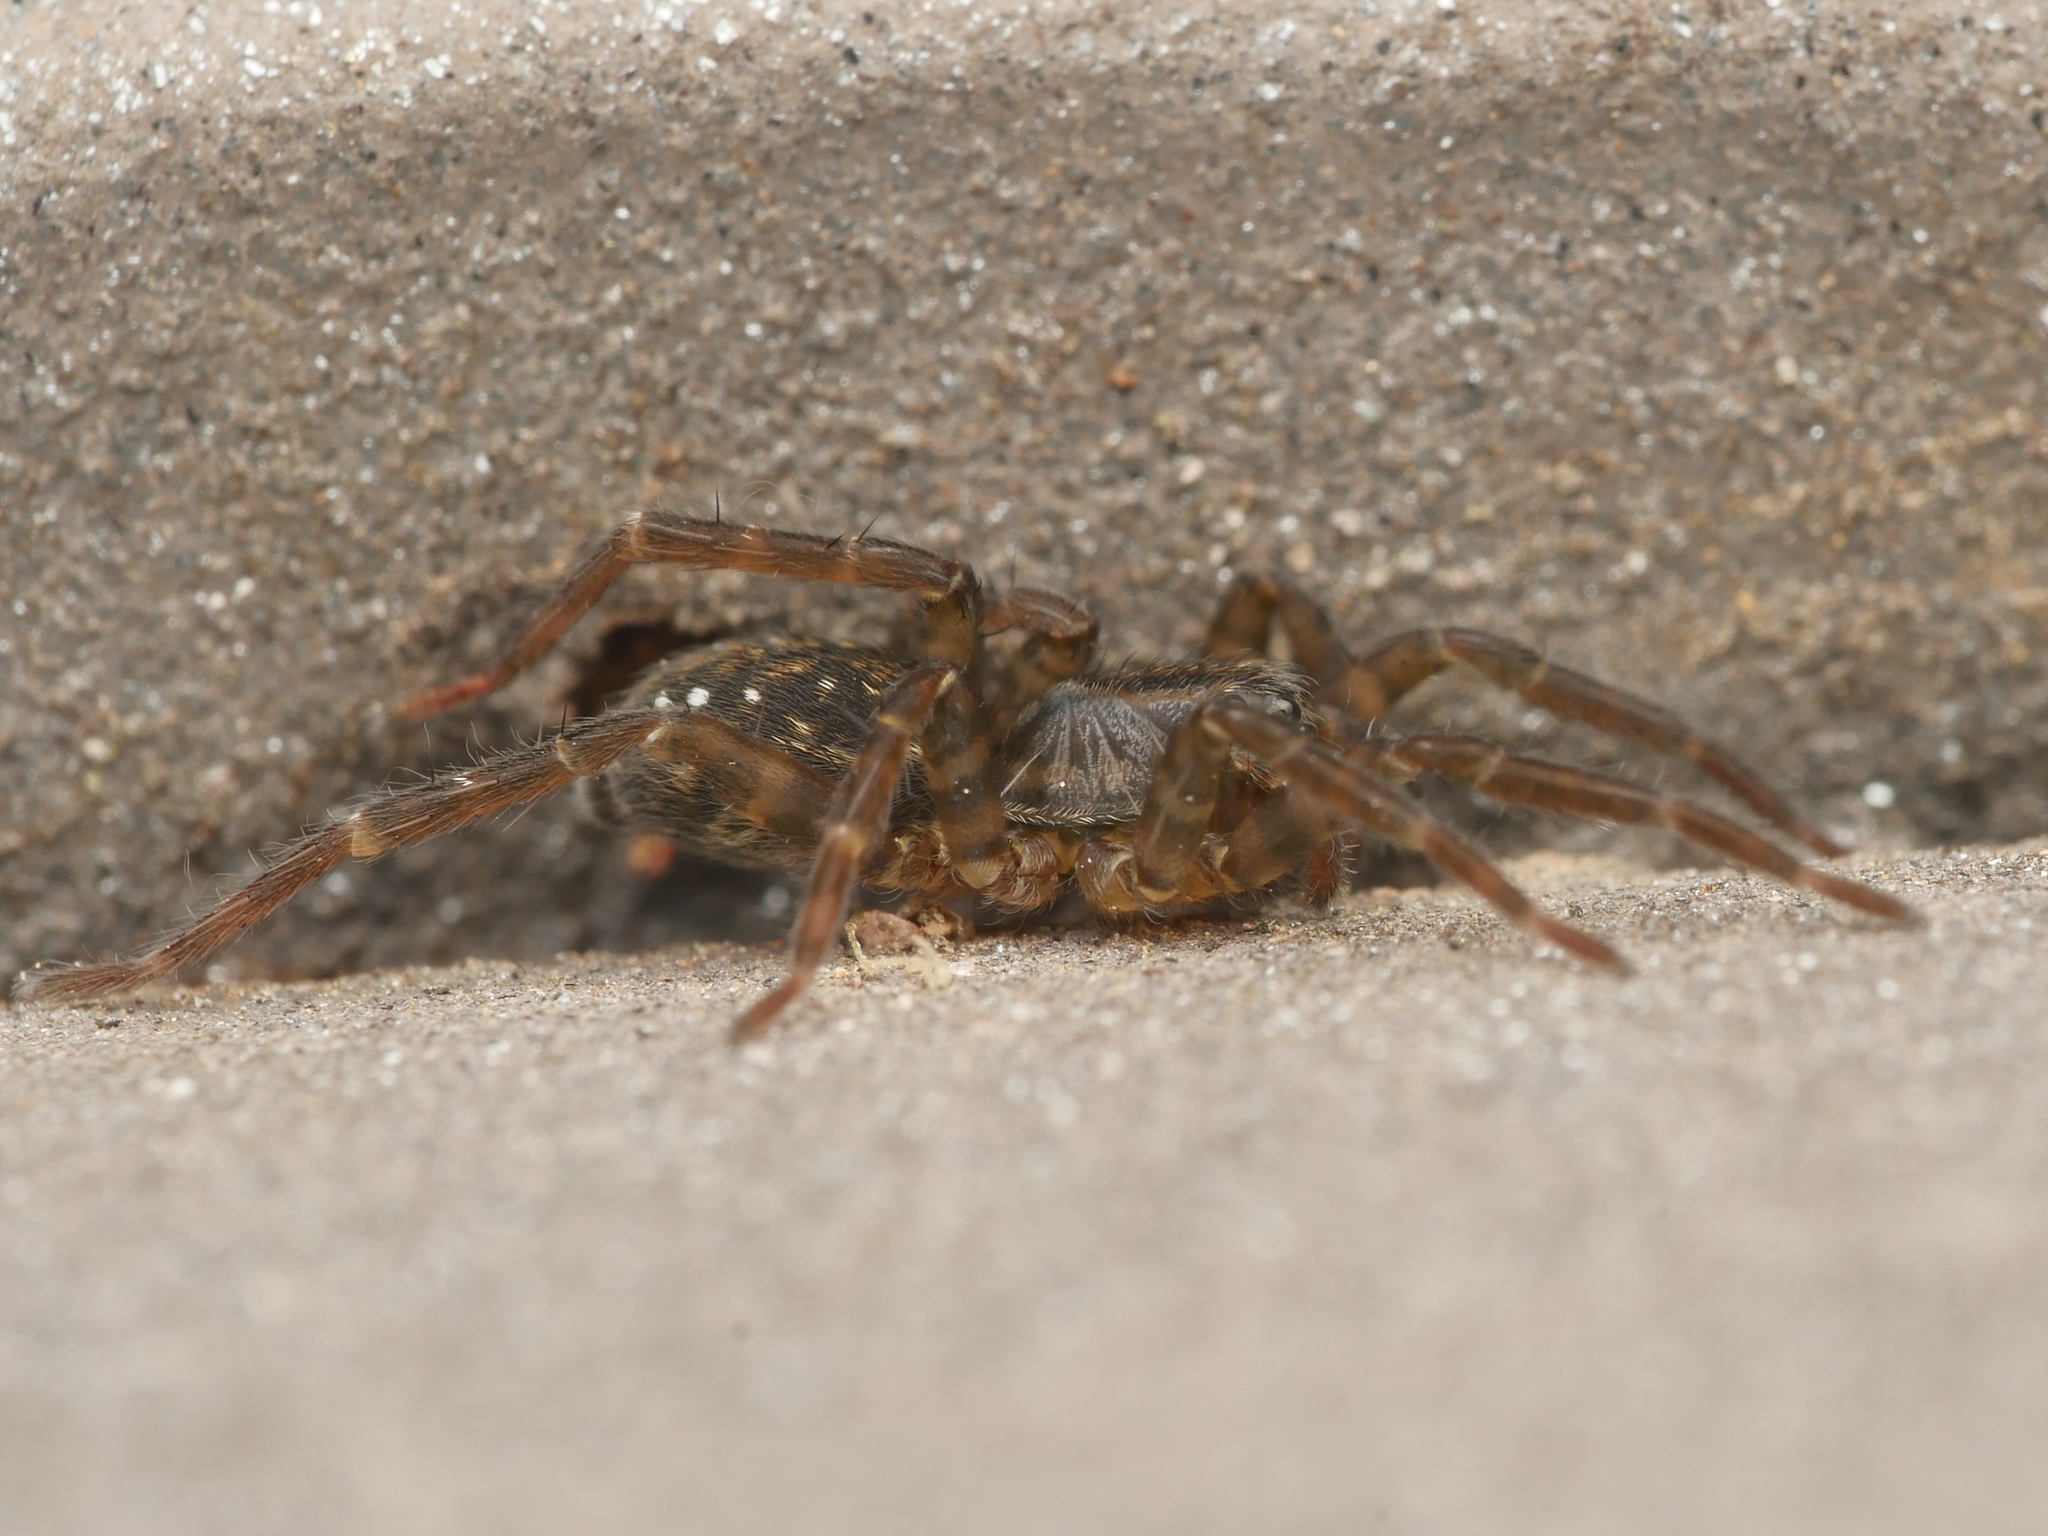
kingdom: Animalia
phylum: Arthropoda
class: Arachnida
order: Araneae
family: Lycosidae
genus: Piratula
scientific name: Piratula hygrophila
